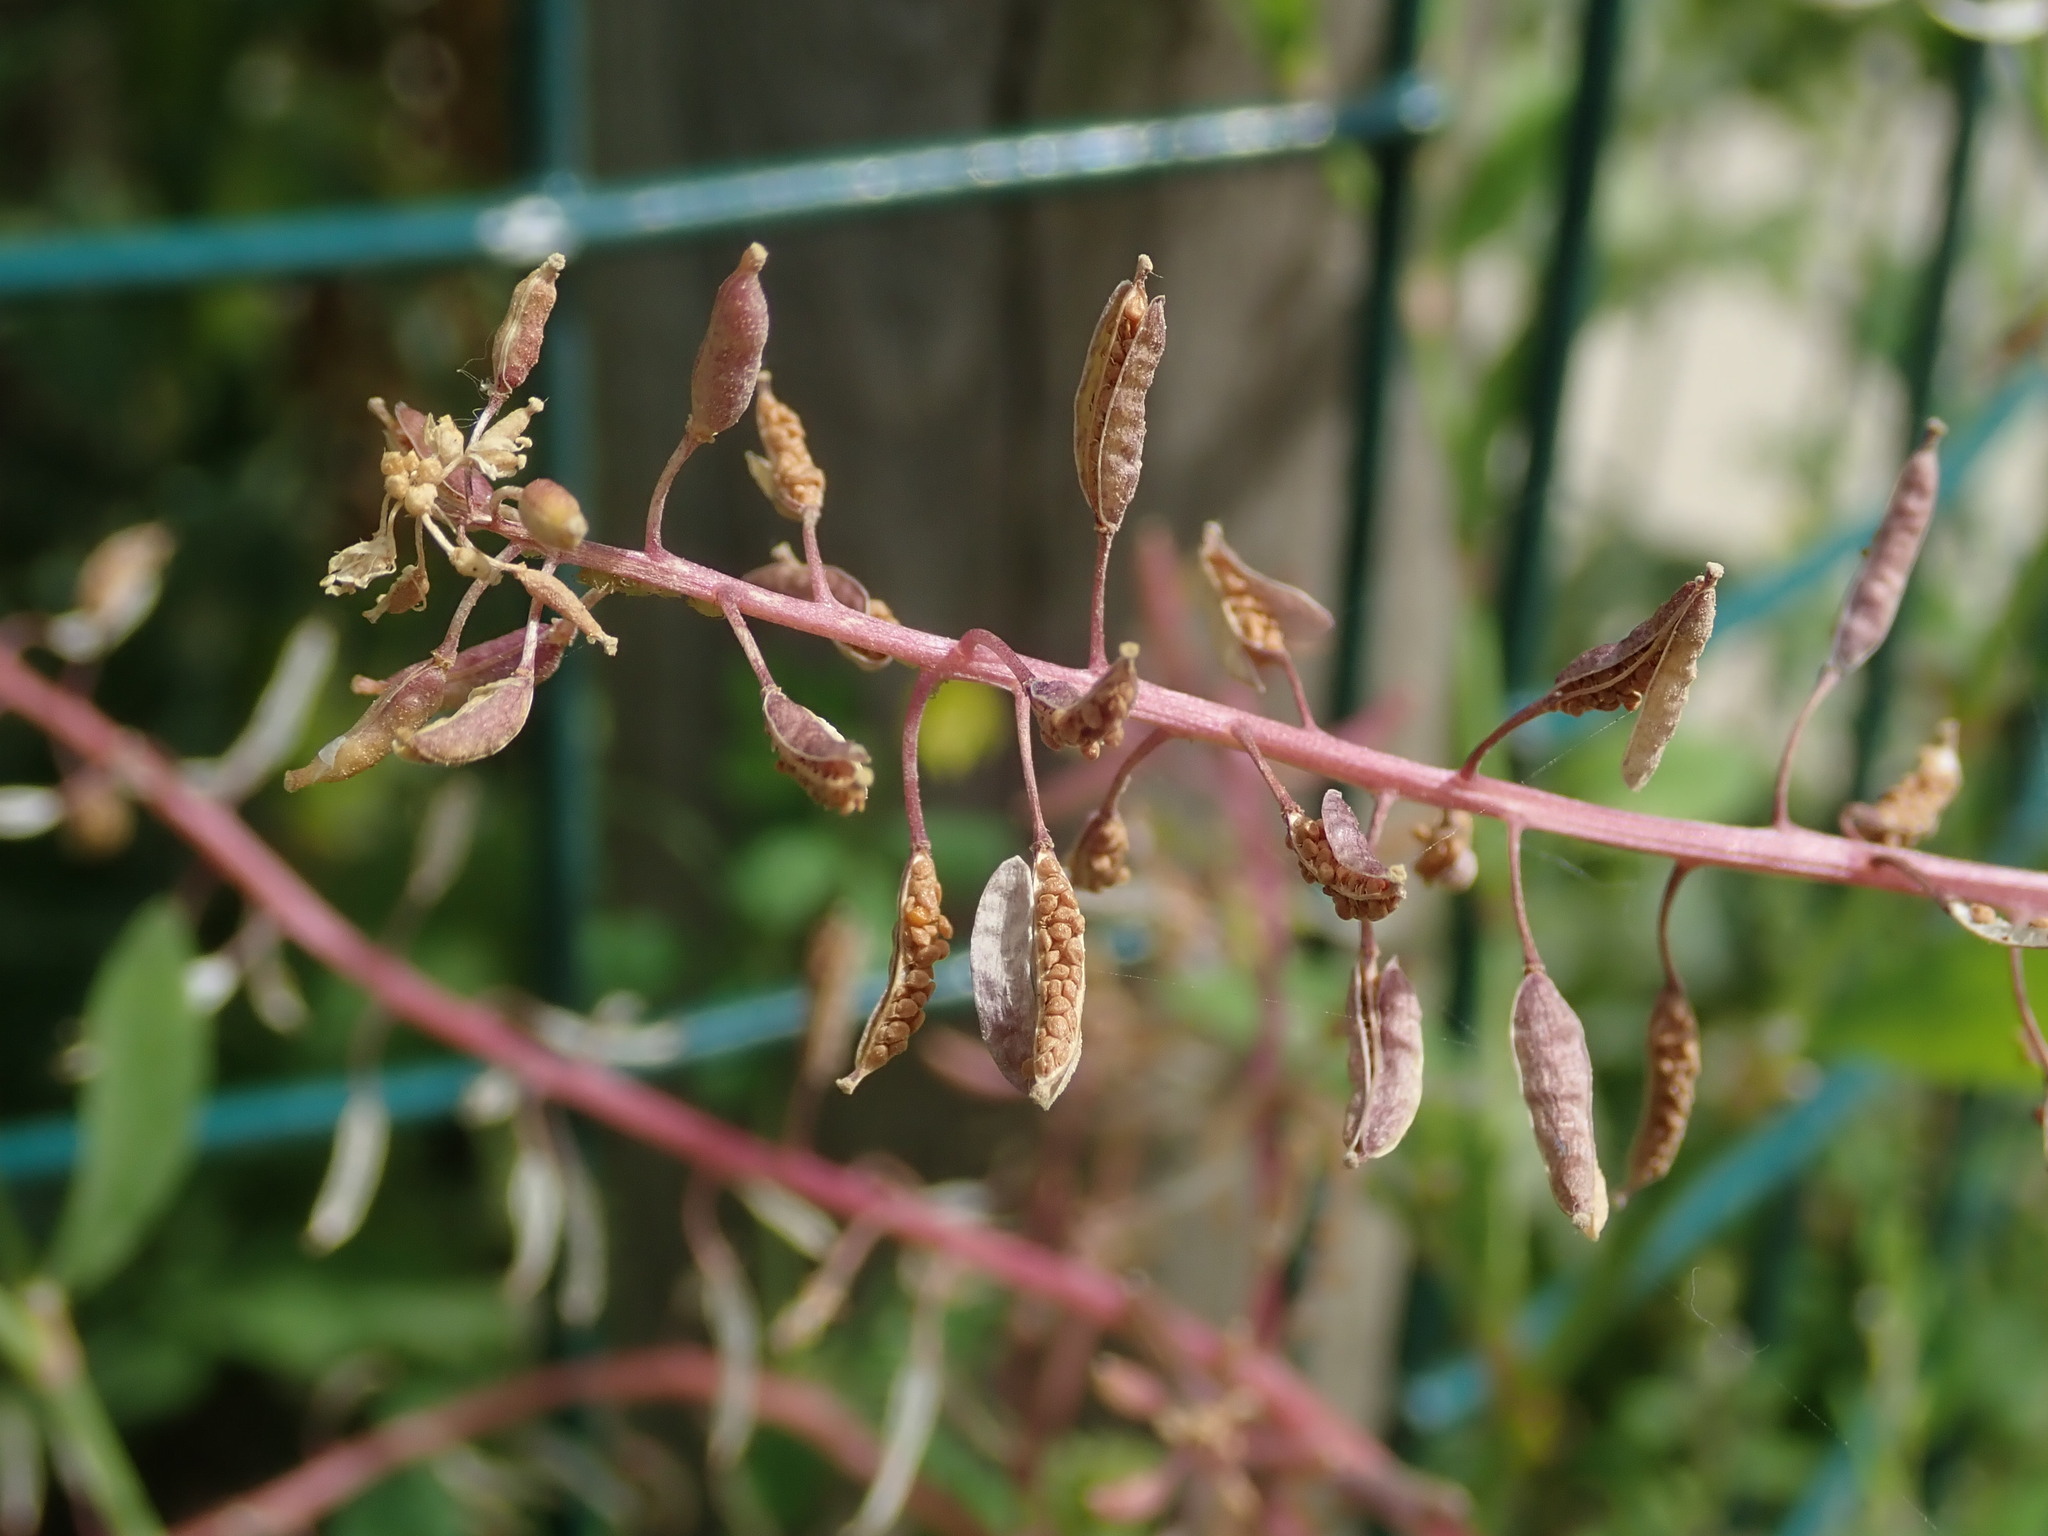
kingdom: Plantae
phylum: Tracheophyta
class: Magnoliopsida
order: Brassicales
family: Brassicaceae
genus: Rorippa
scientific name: Rorippa palustris
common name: Marsh yellow-cress
